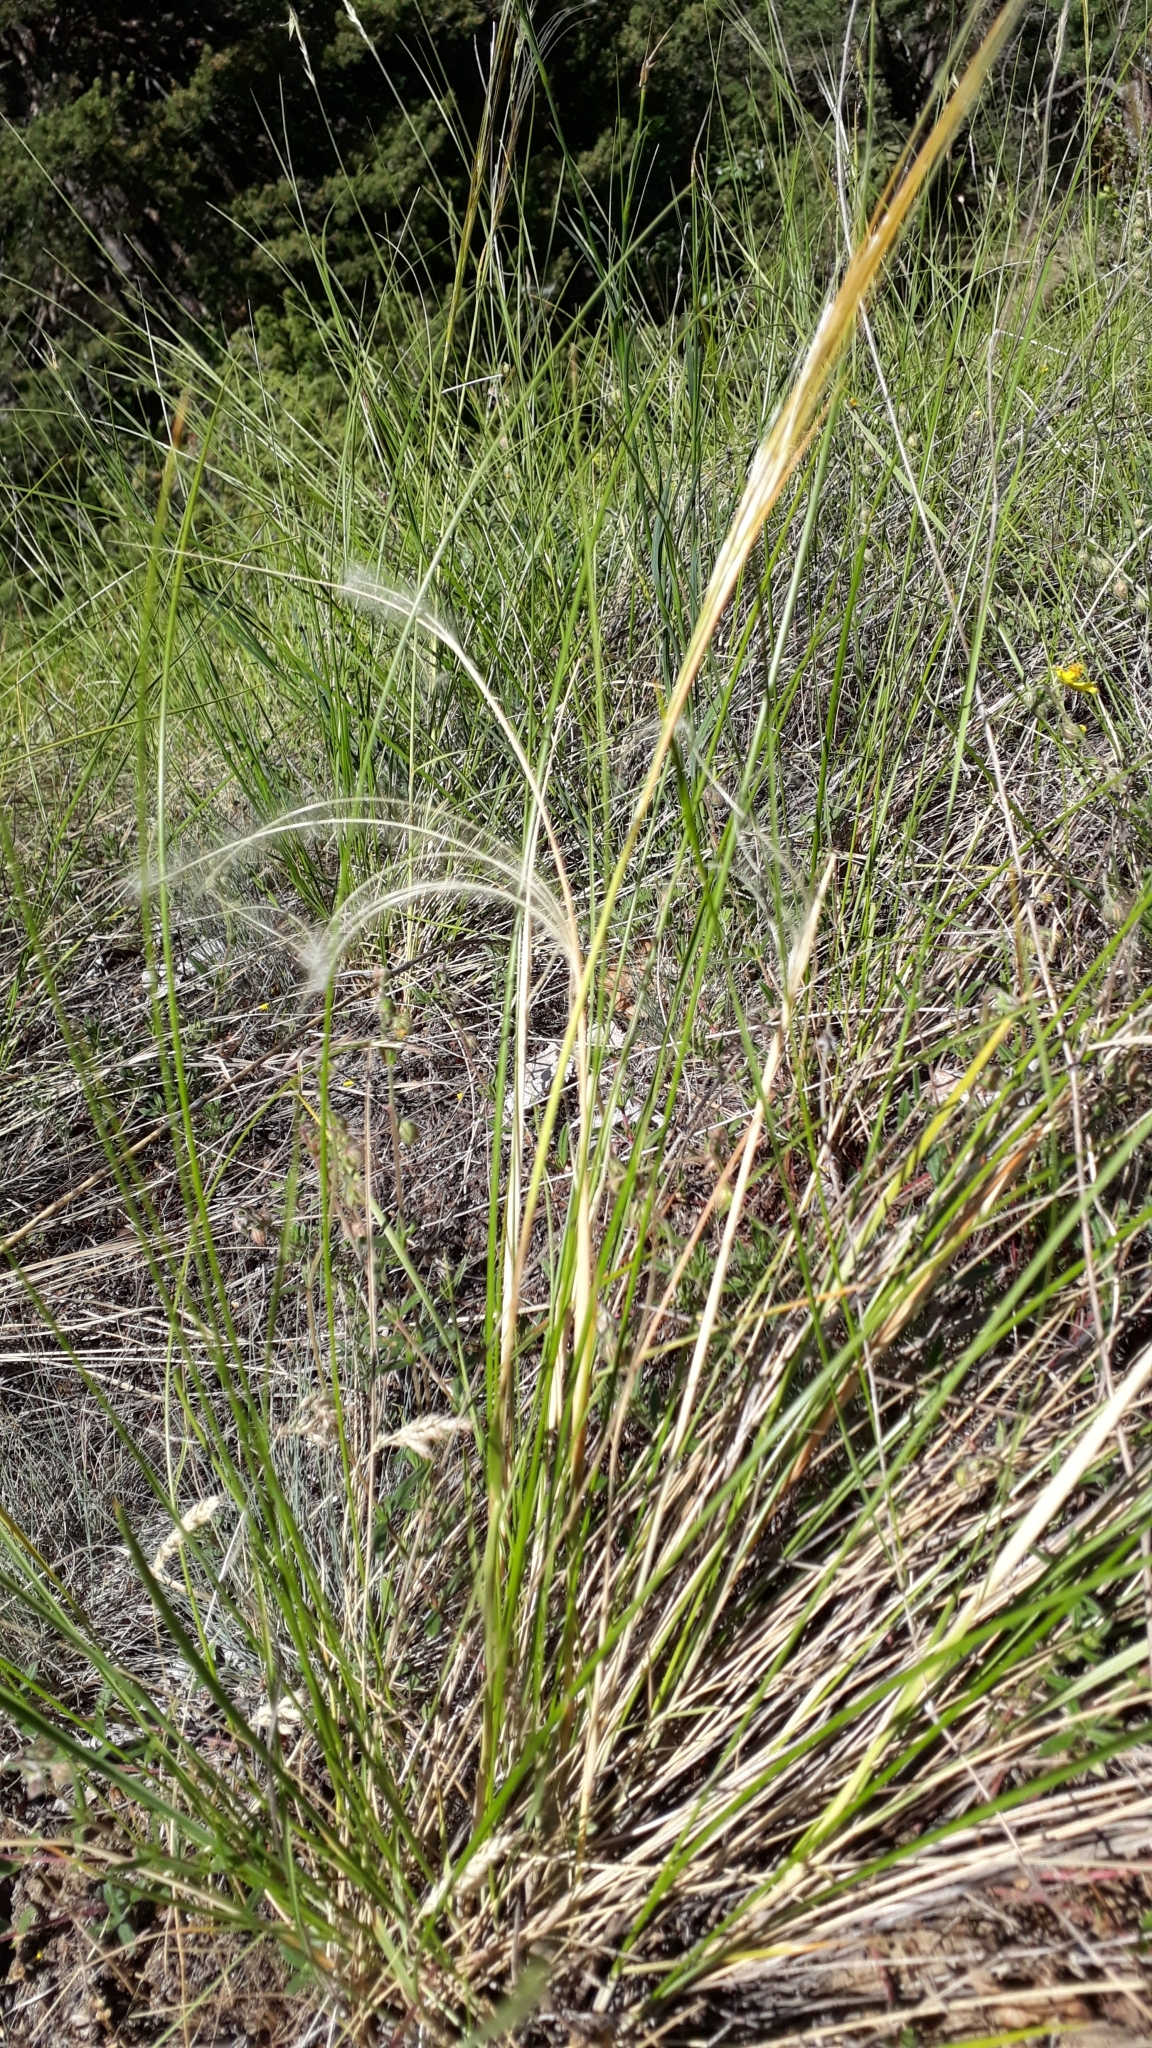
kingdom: Plantae
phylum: Tracheophyta
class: Liliopsida
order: Poales
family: Poaceae
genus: Stipa
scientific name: Stipa pennata
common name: European feather grass
